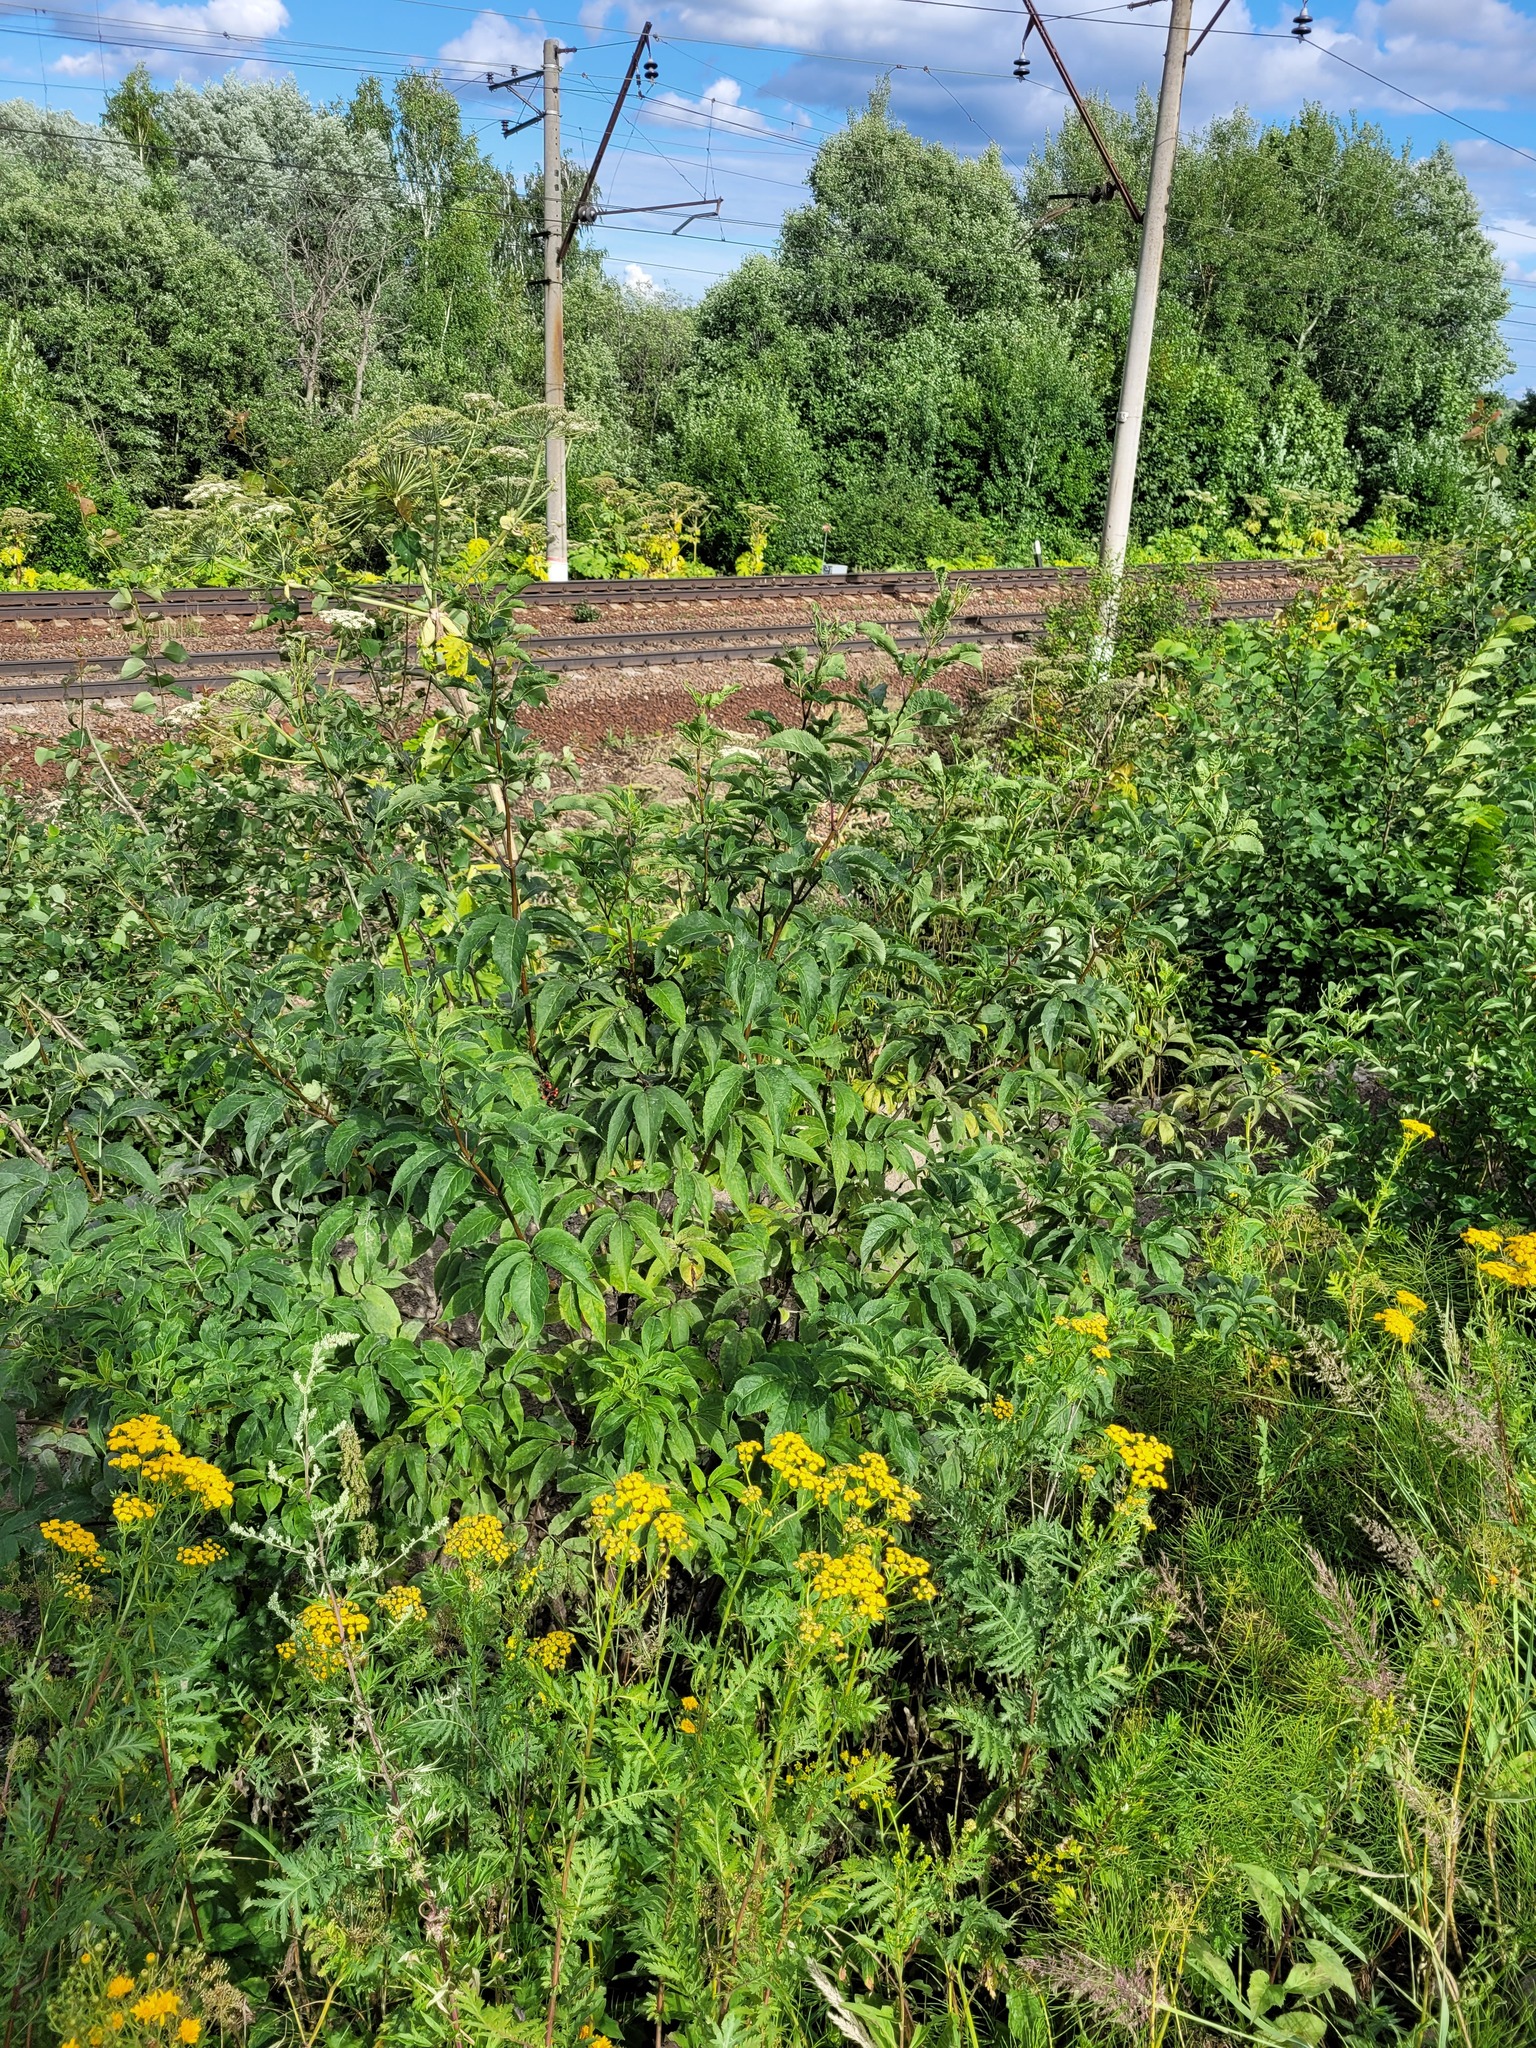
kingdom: Plantae
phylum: Tracheophyta
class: Magnoliopsida
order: Dipsacales
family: Viburnaceae
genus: Sambucus
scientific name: Sambucus racemosa
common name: Red-berried elder
